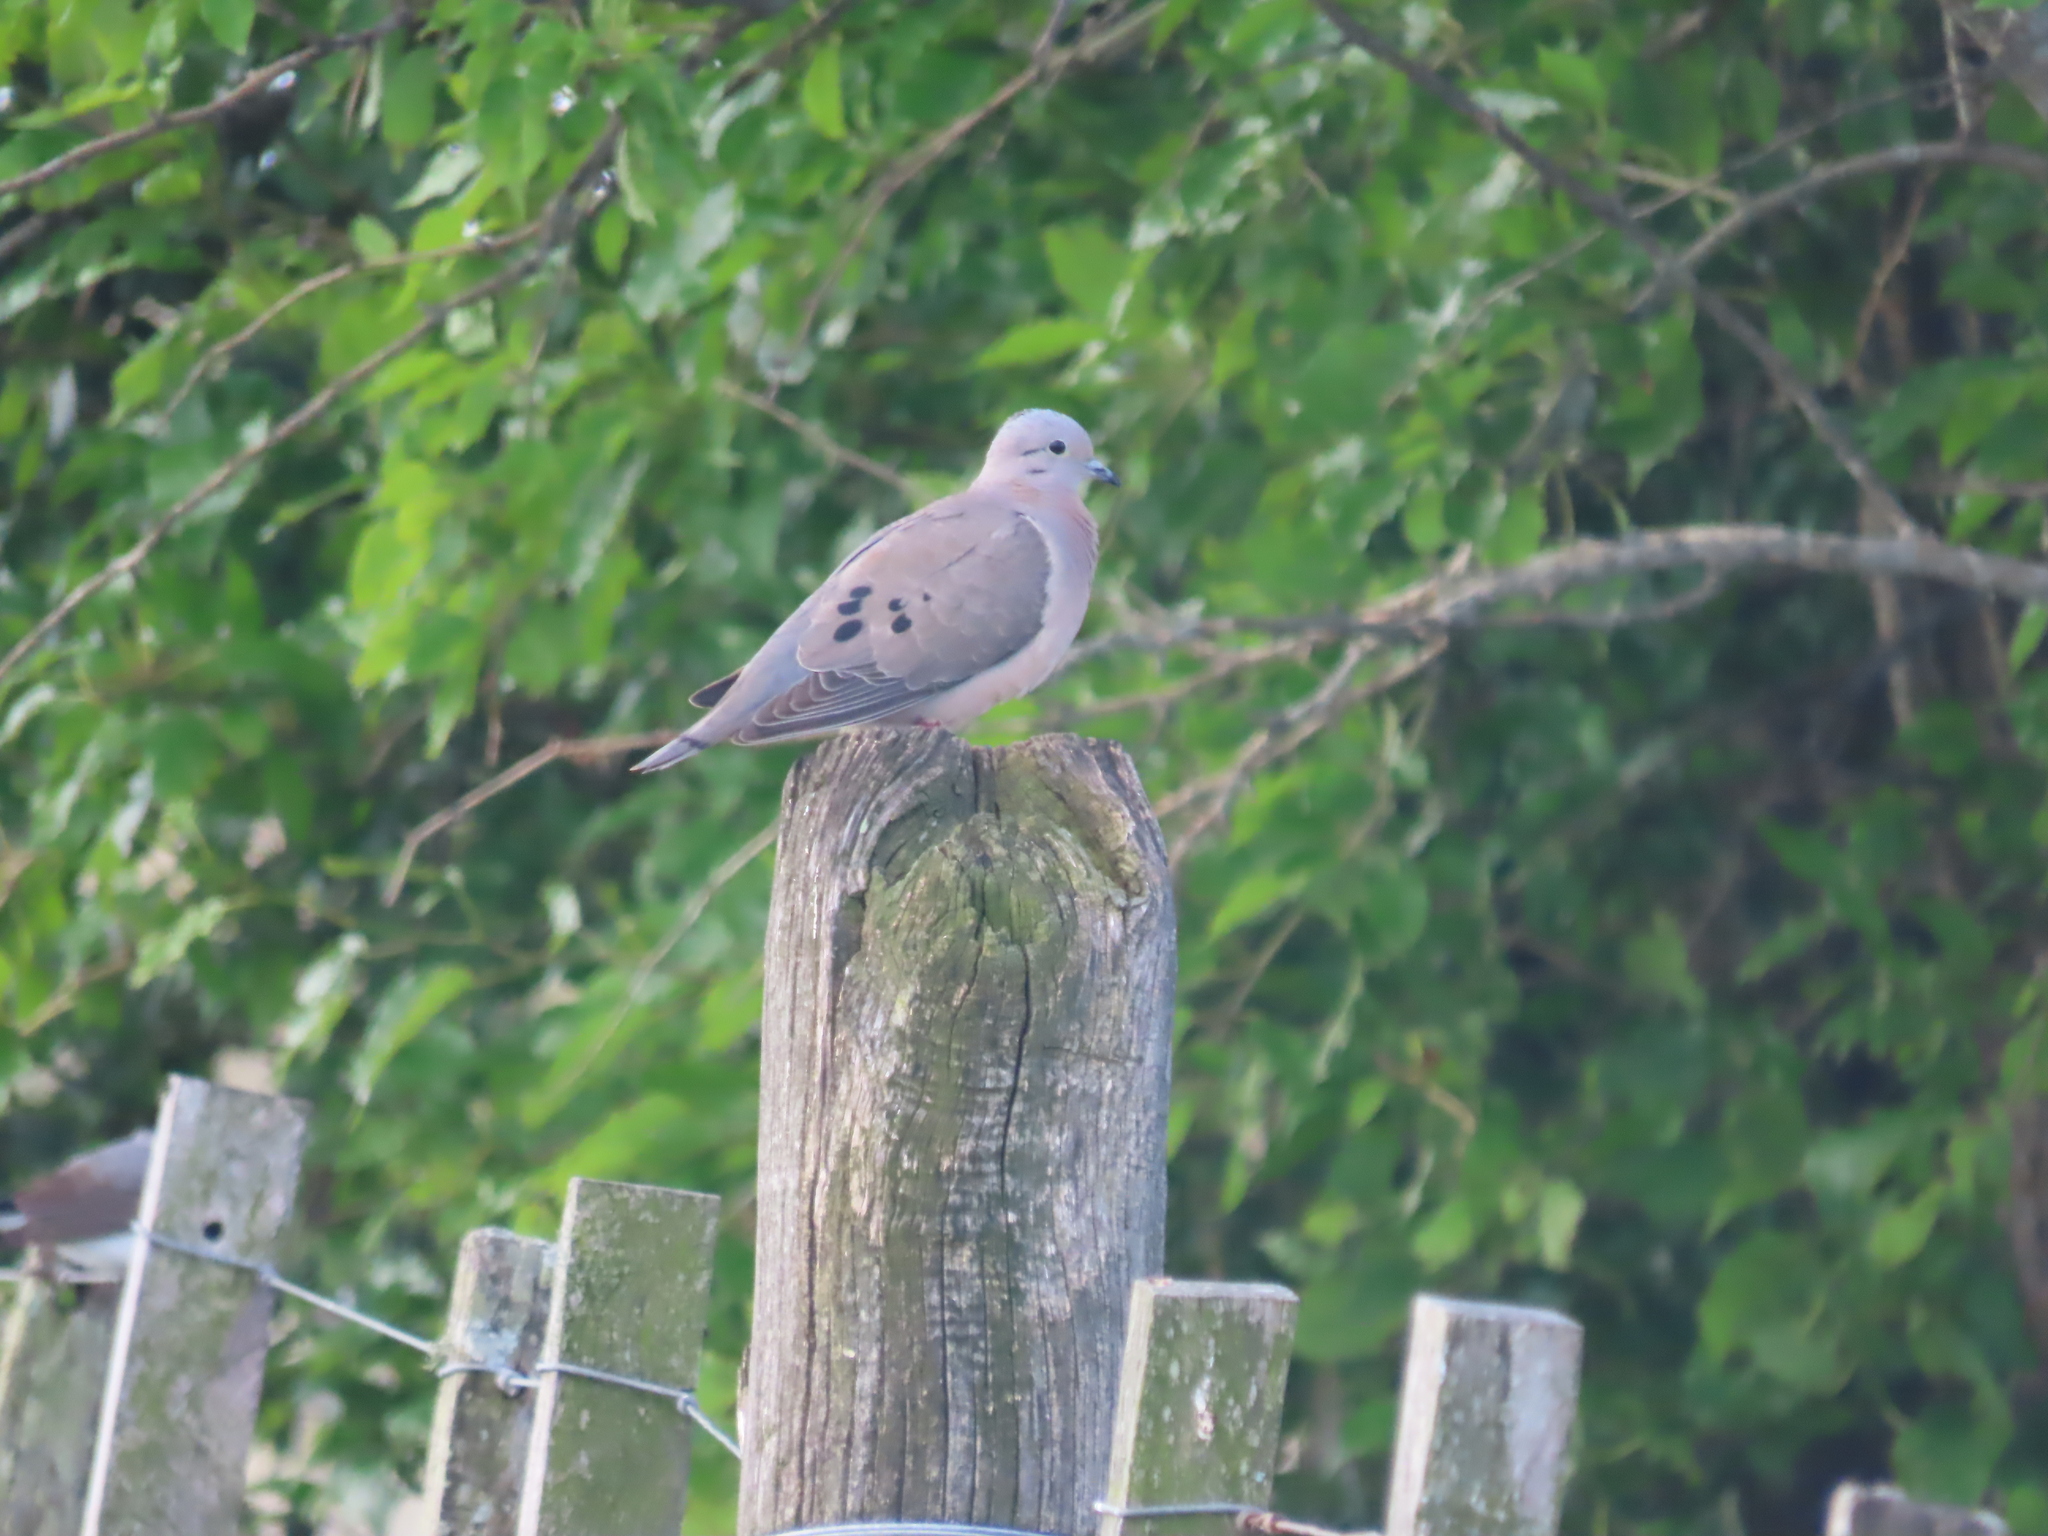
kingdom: Animalia
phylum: Chordata
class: Aves
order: Columbiformes
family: Columbidae
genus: Zenaida
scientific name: Zenaida auriculata
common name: Eared dove
